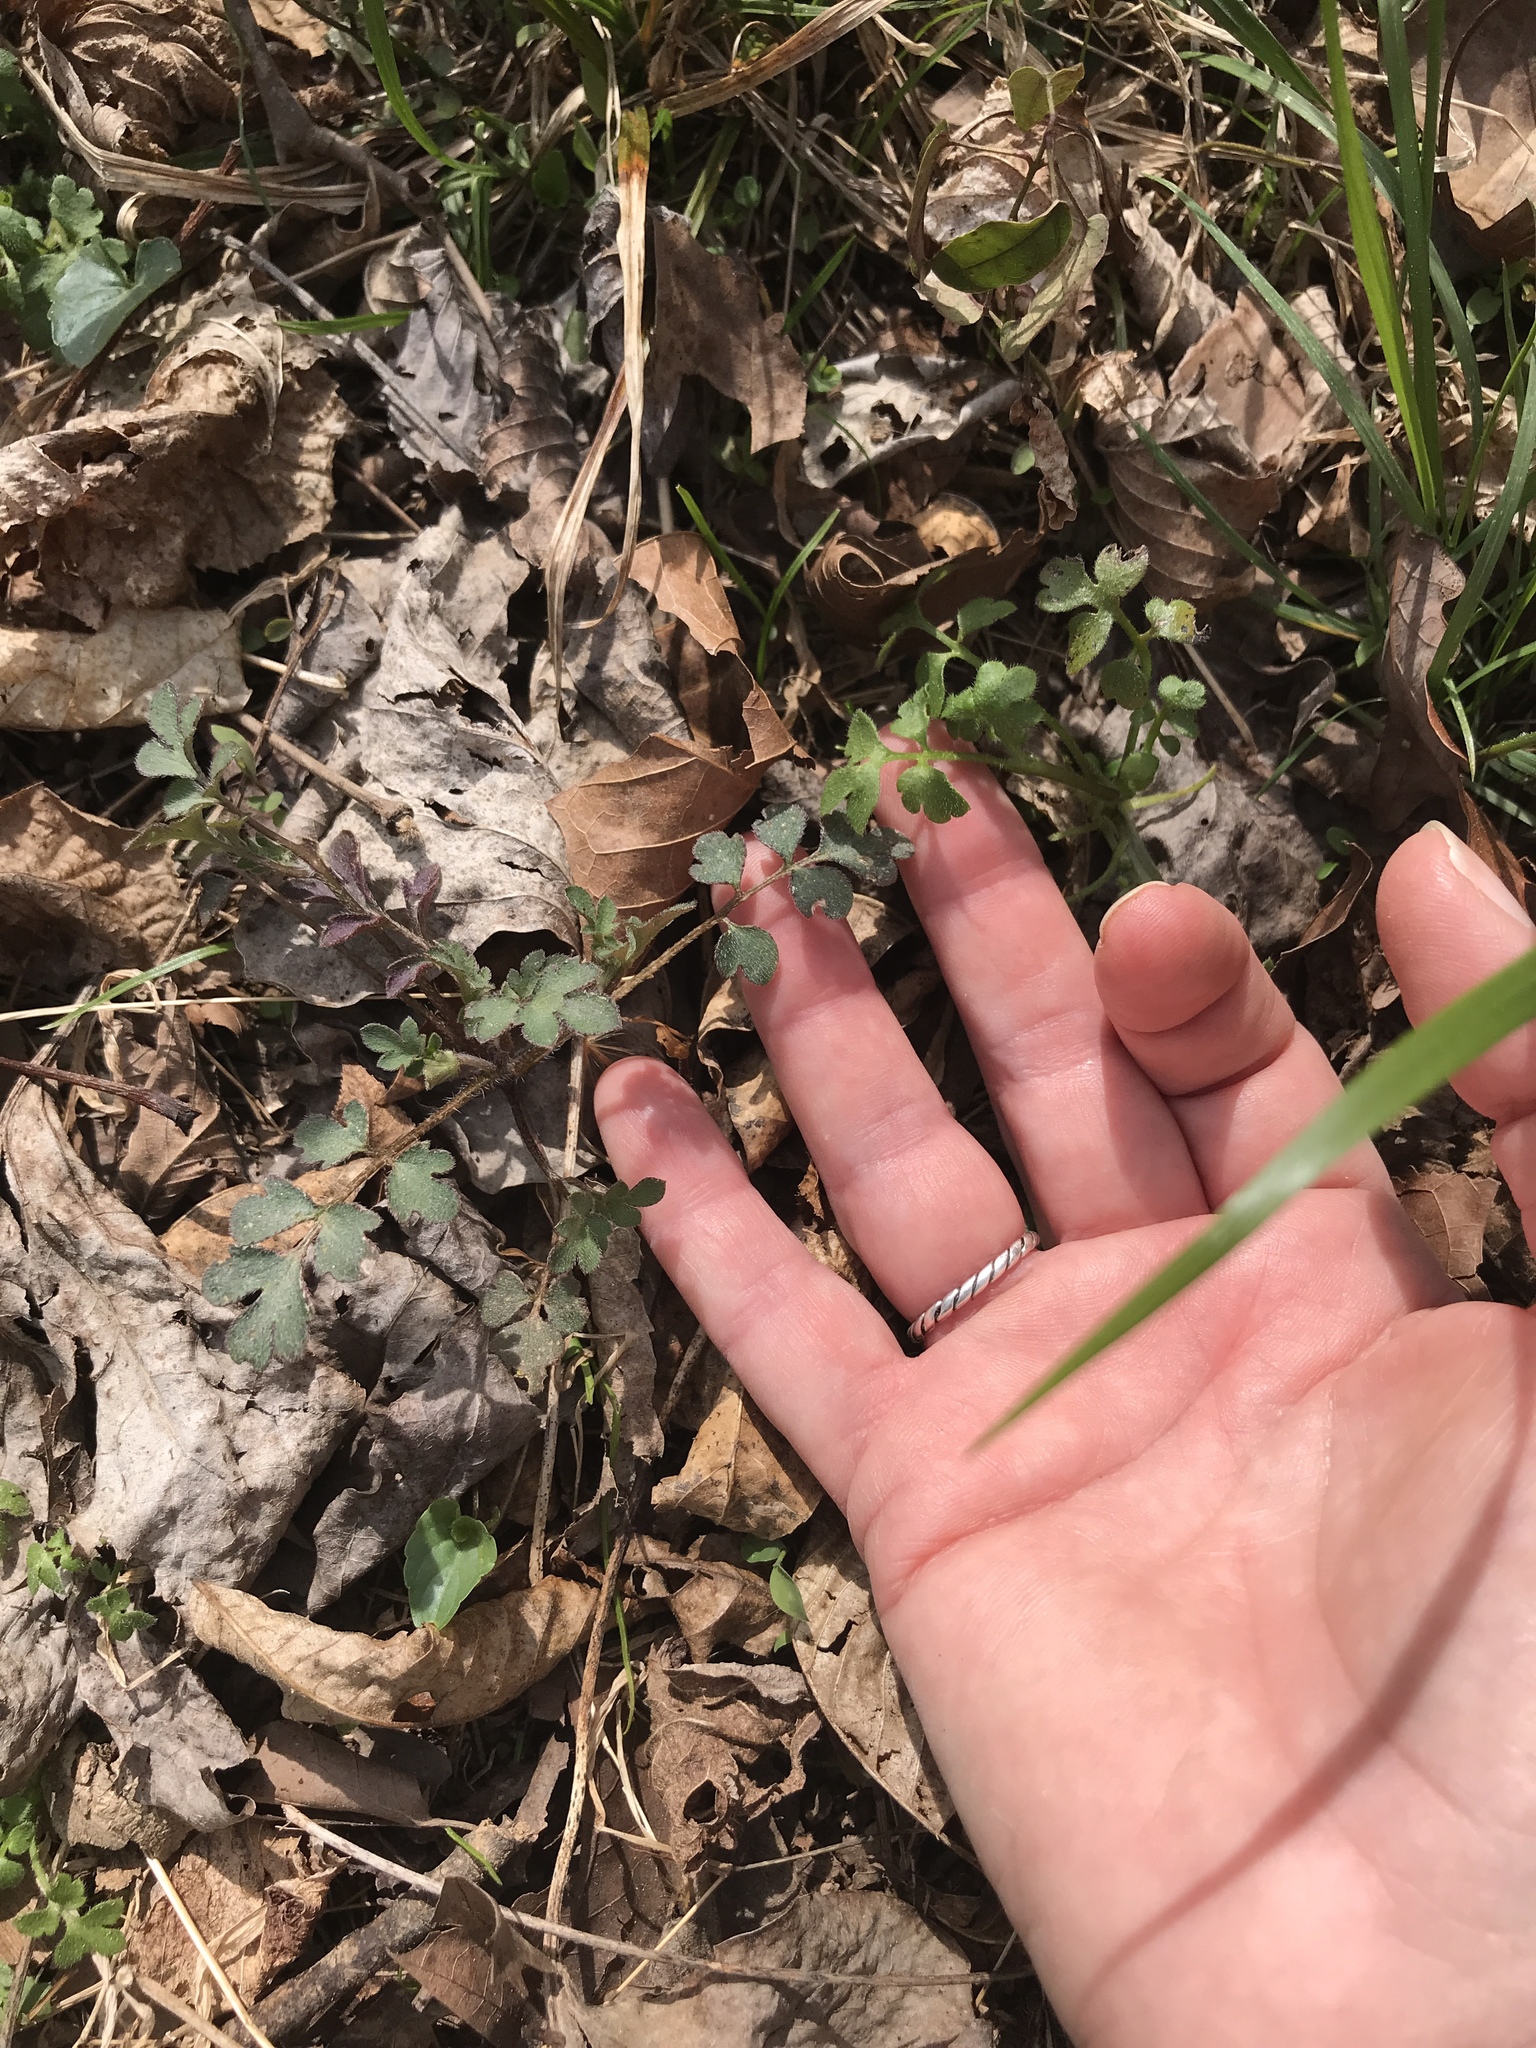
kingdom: Plantae
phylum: Tracheophyta
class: Magnoliopsida
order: Boraginales
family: Hydrophyllaceae
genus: Phacelia
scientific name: Phacelia covillei
